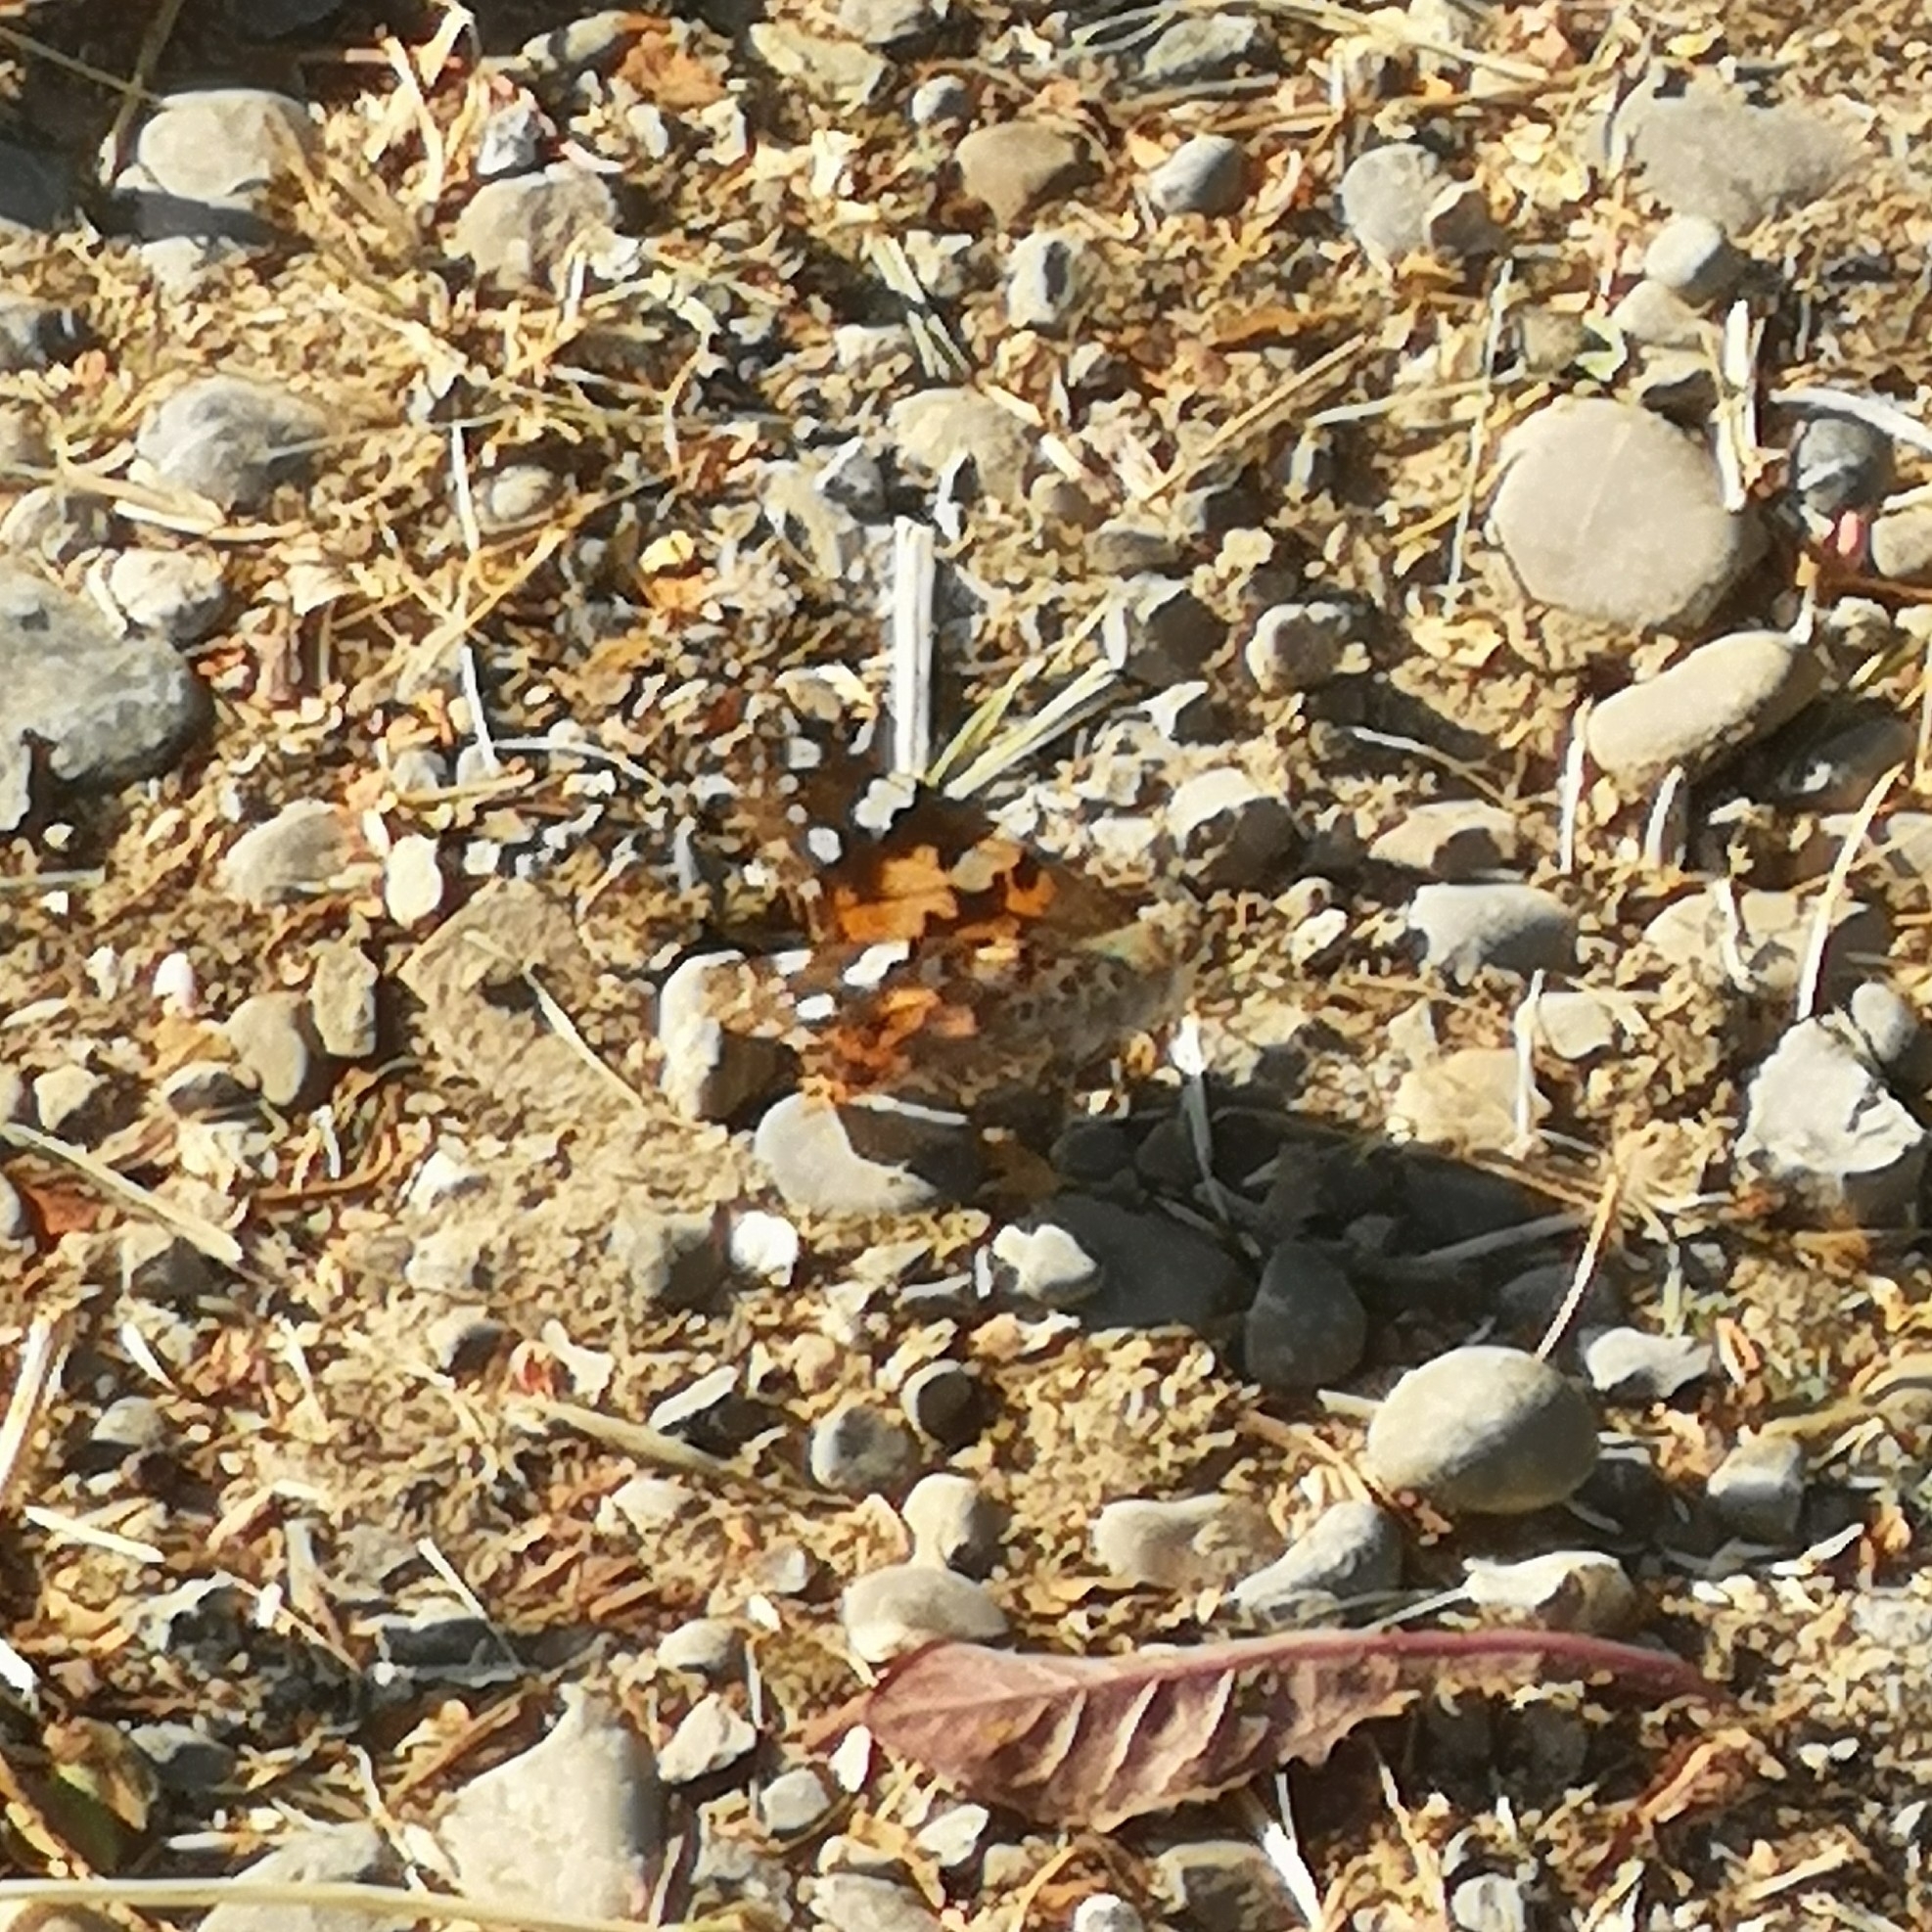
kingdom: Animalia
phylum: Arthropoda
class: Insecta
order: Lepidoptera
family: Nymphalidae
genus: Vanessa
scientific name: Vanessa cardui
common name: Painted lady
